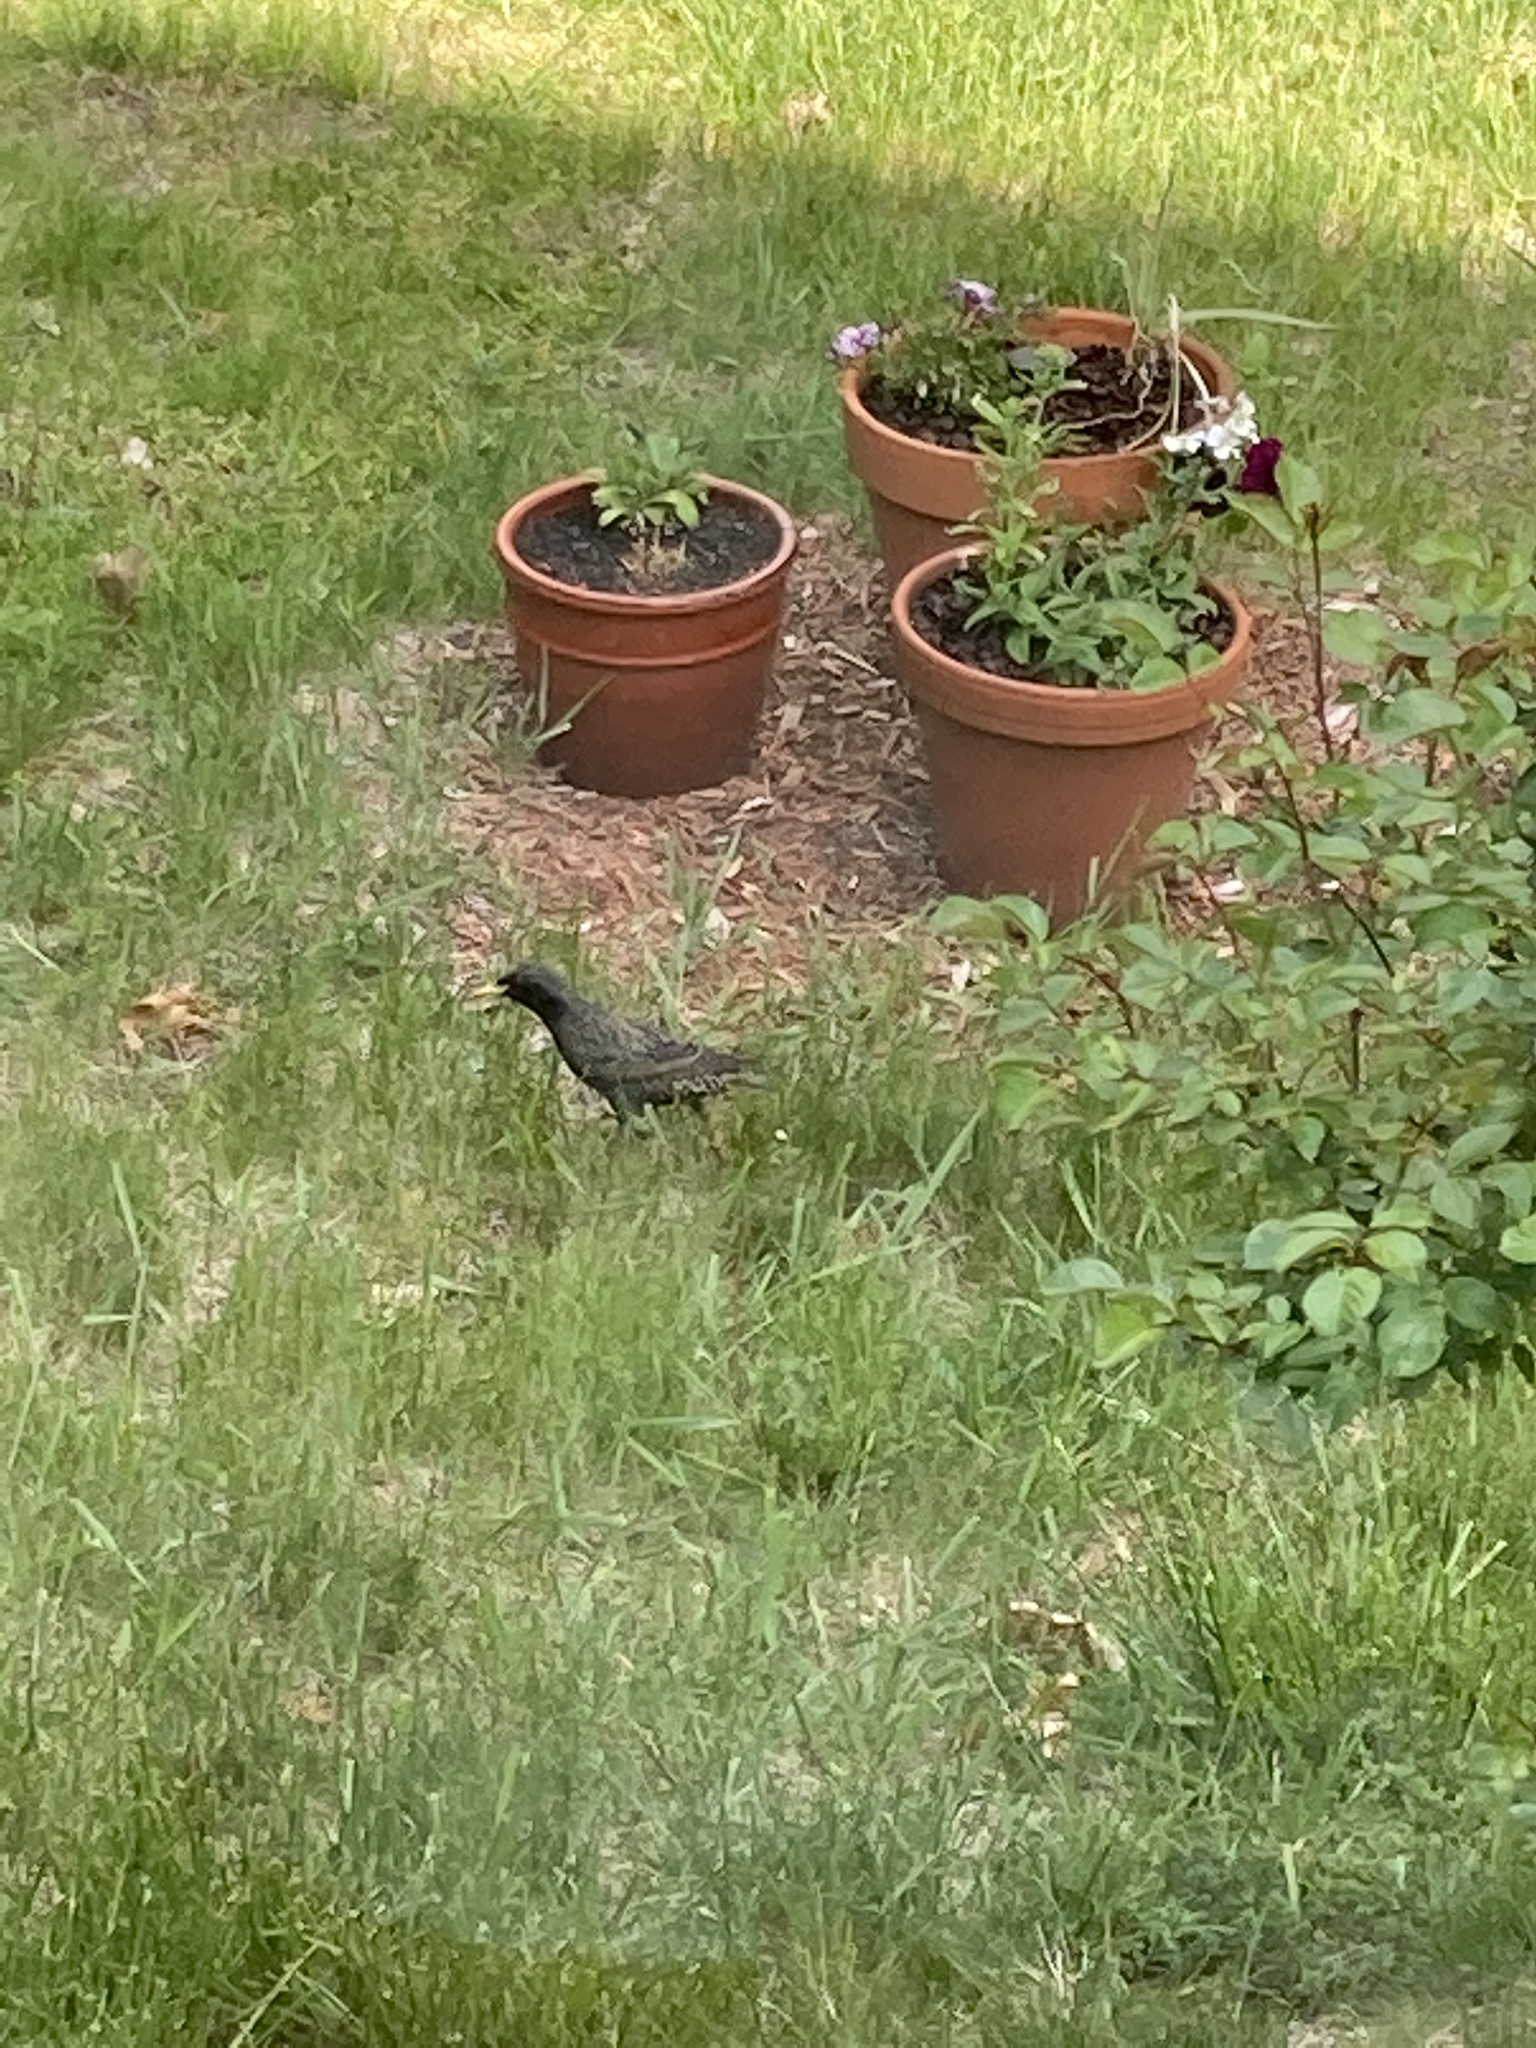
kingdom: Animalia
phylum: Chordata
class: Aves
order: Passeriformes
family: Sturnidae
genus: Sturnus
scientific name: Sturnus vulgaris
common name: Common starling
